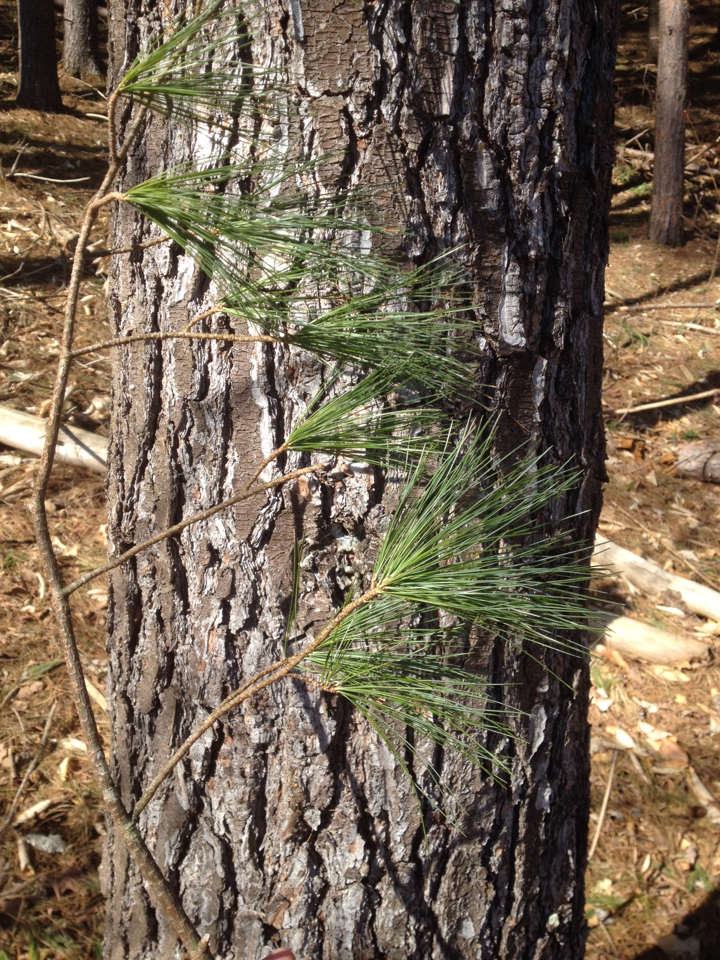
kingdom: Plantae
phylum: Tracheophyta
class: Pinopsida
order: Pinales
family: Pinaceae
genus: Pinus
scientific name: Pinus strobus
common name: Weymouth pine
